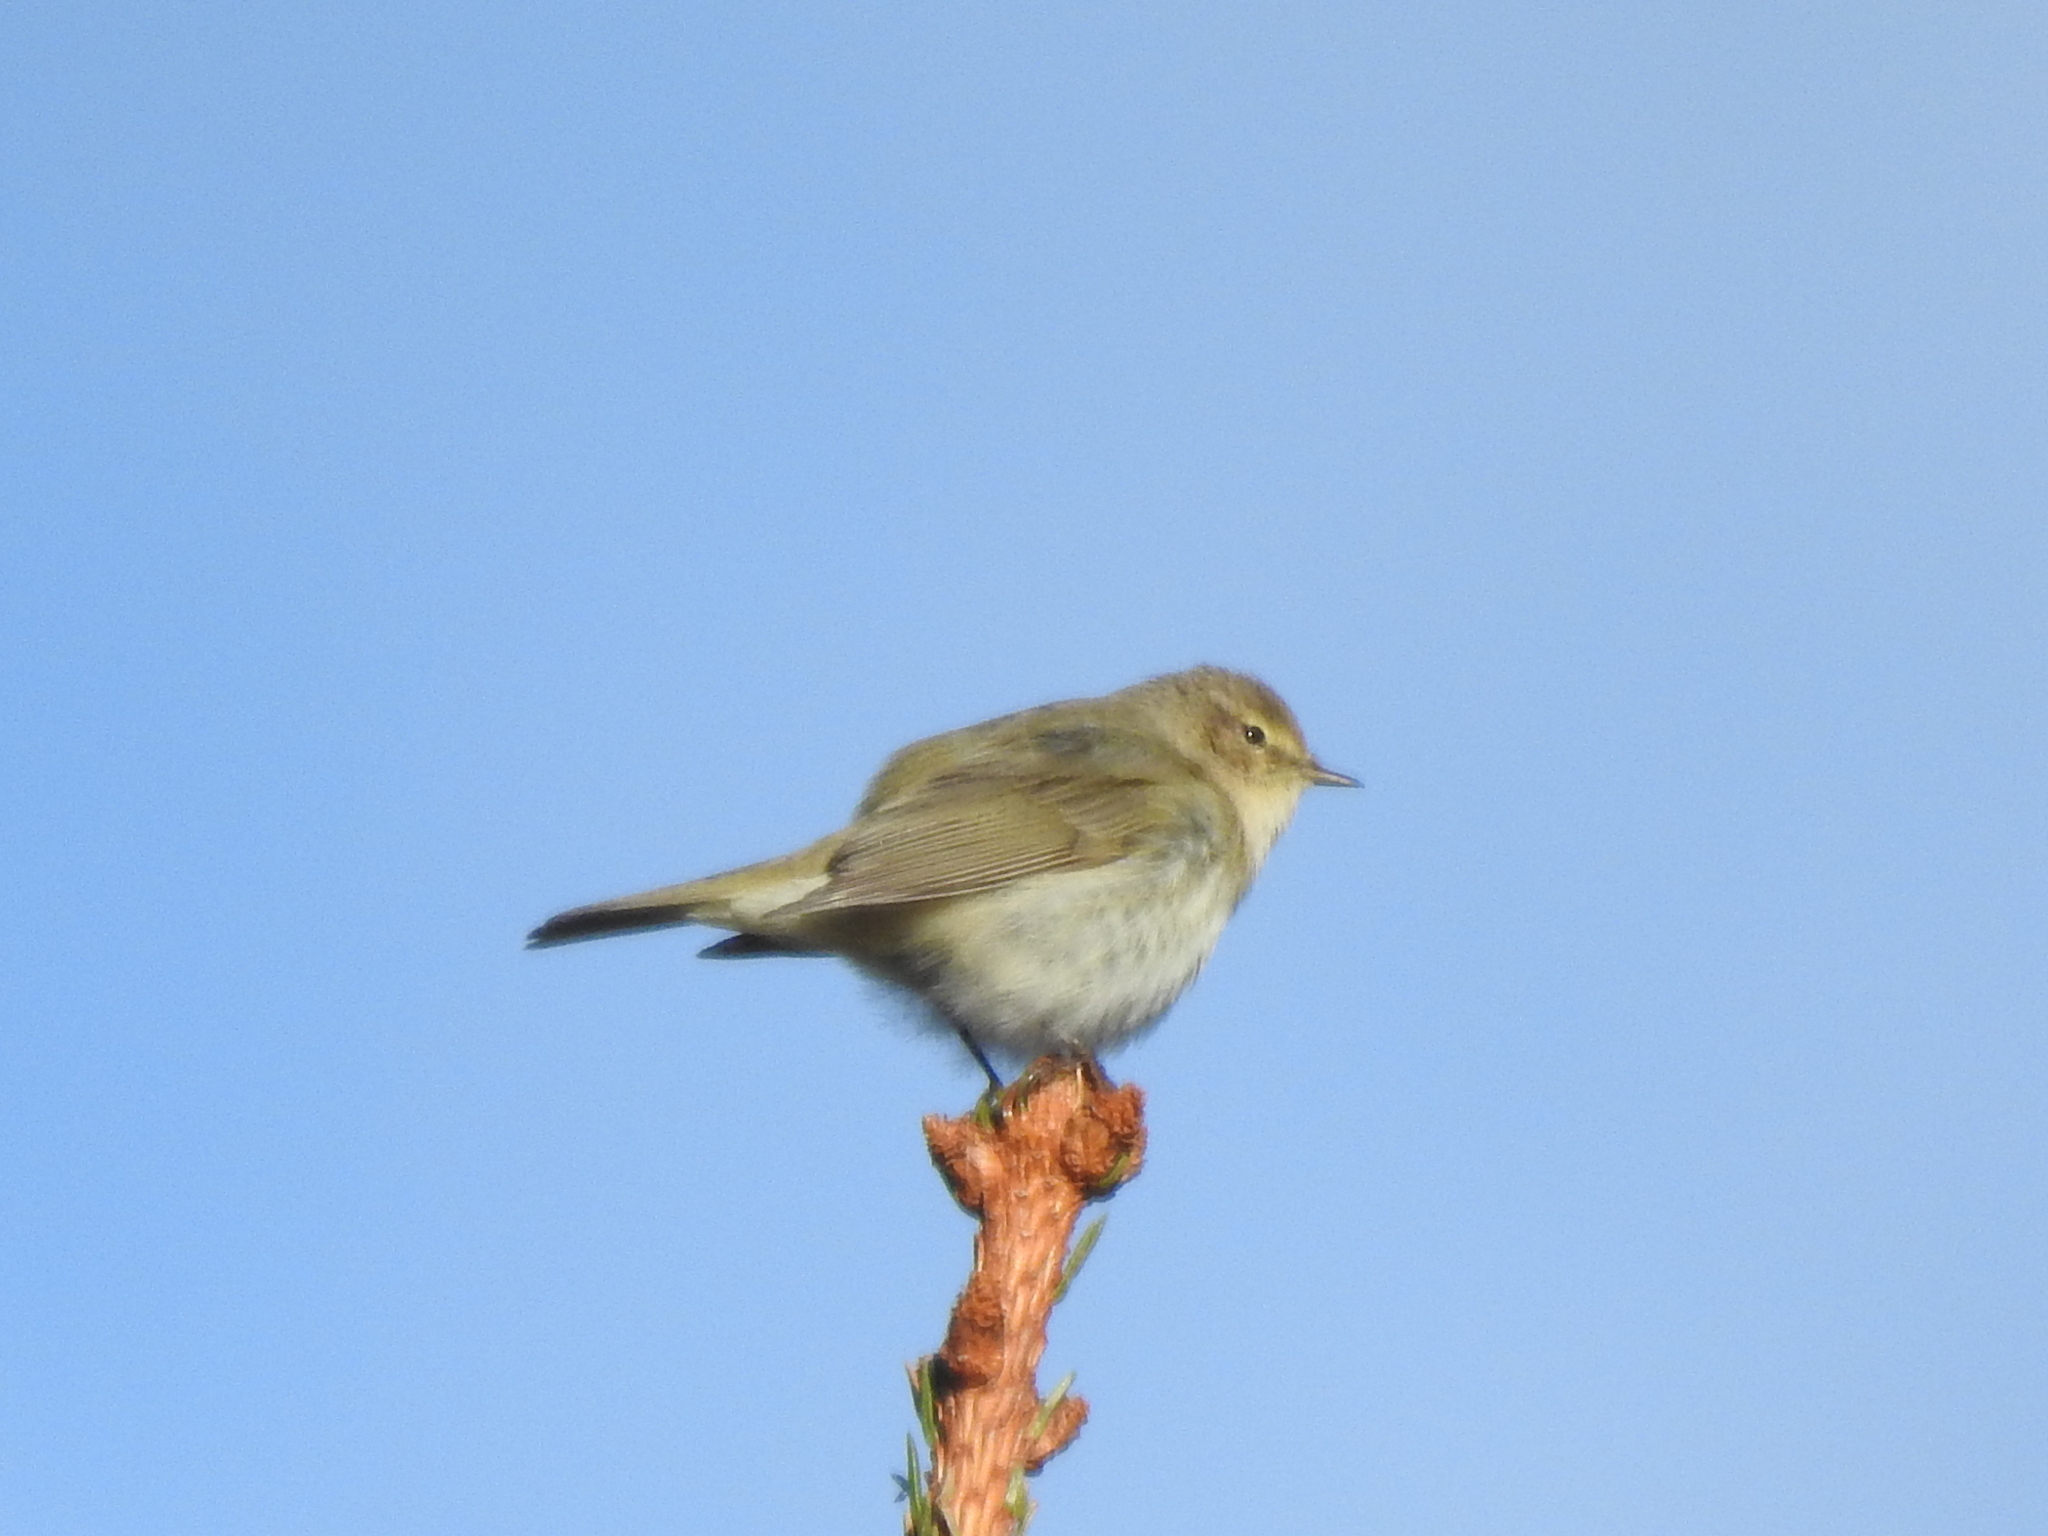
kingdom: Animalia
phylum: Chordata
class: Aves
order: Passeriformes
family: Phylloscopidae
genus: Phylloscopus
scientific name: Phylloscopus collybita
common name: Common chiffchaff
